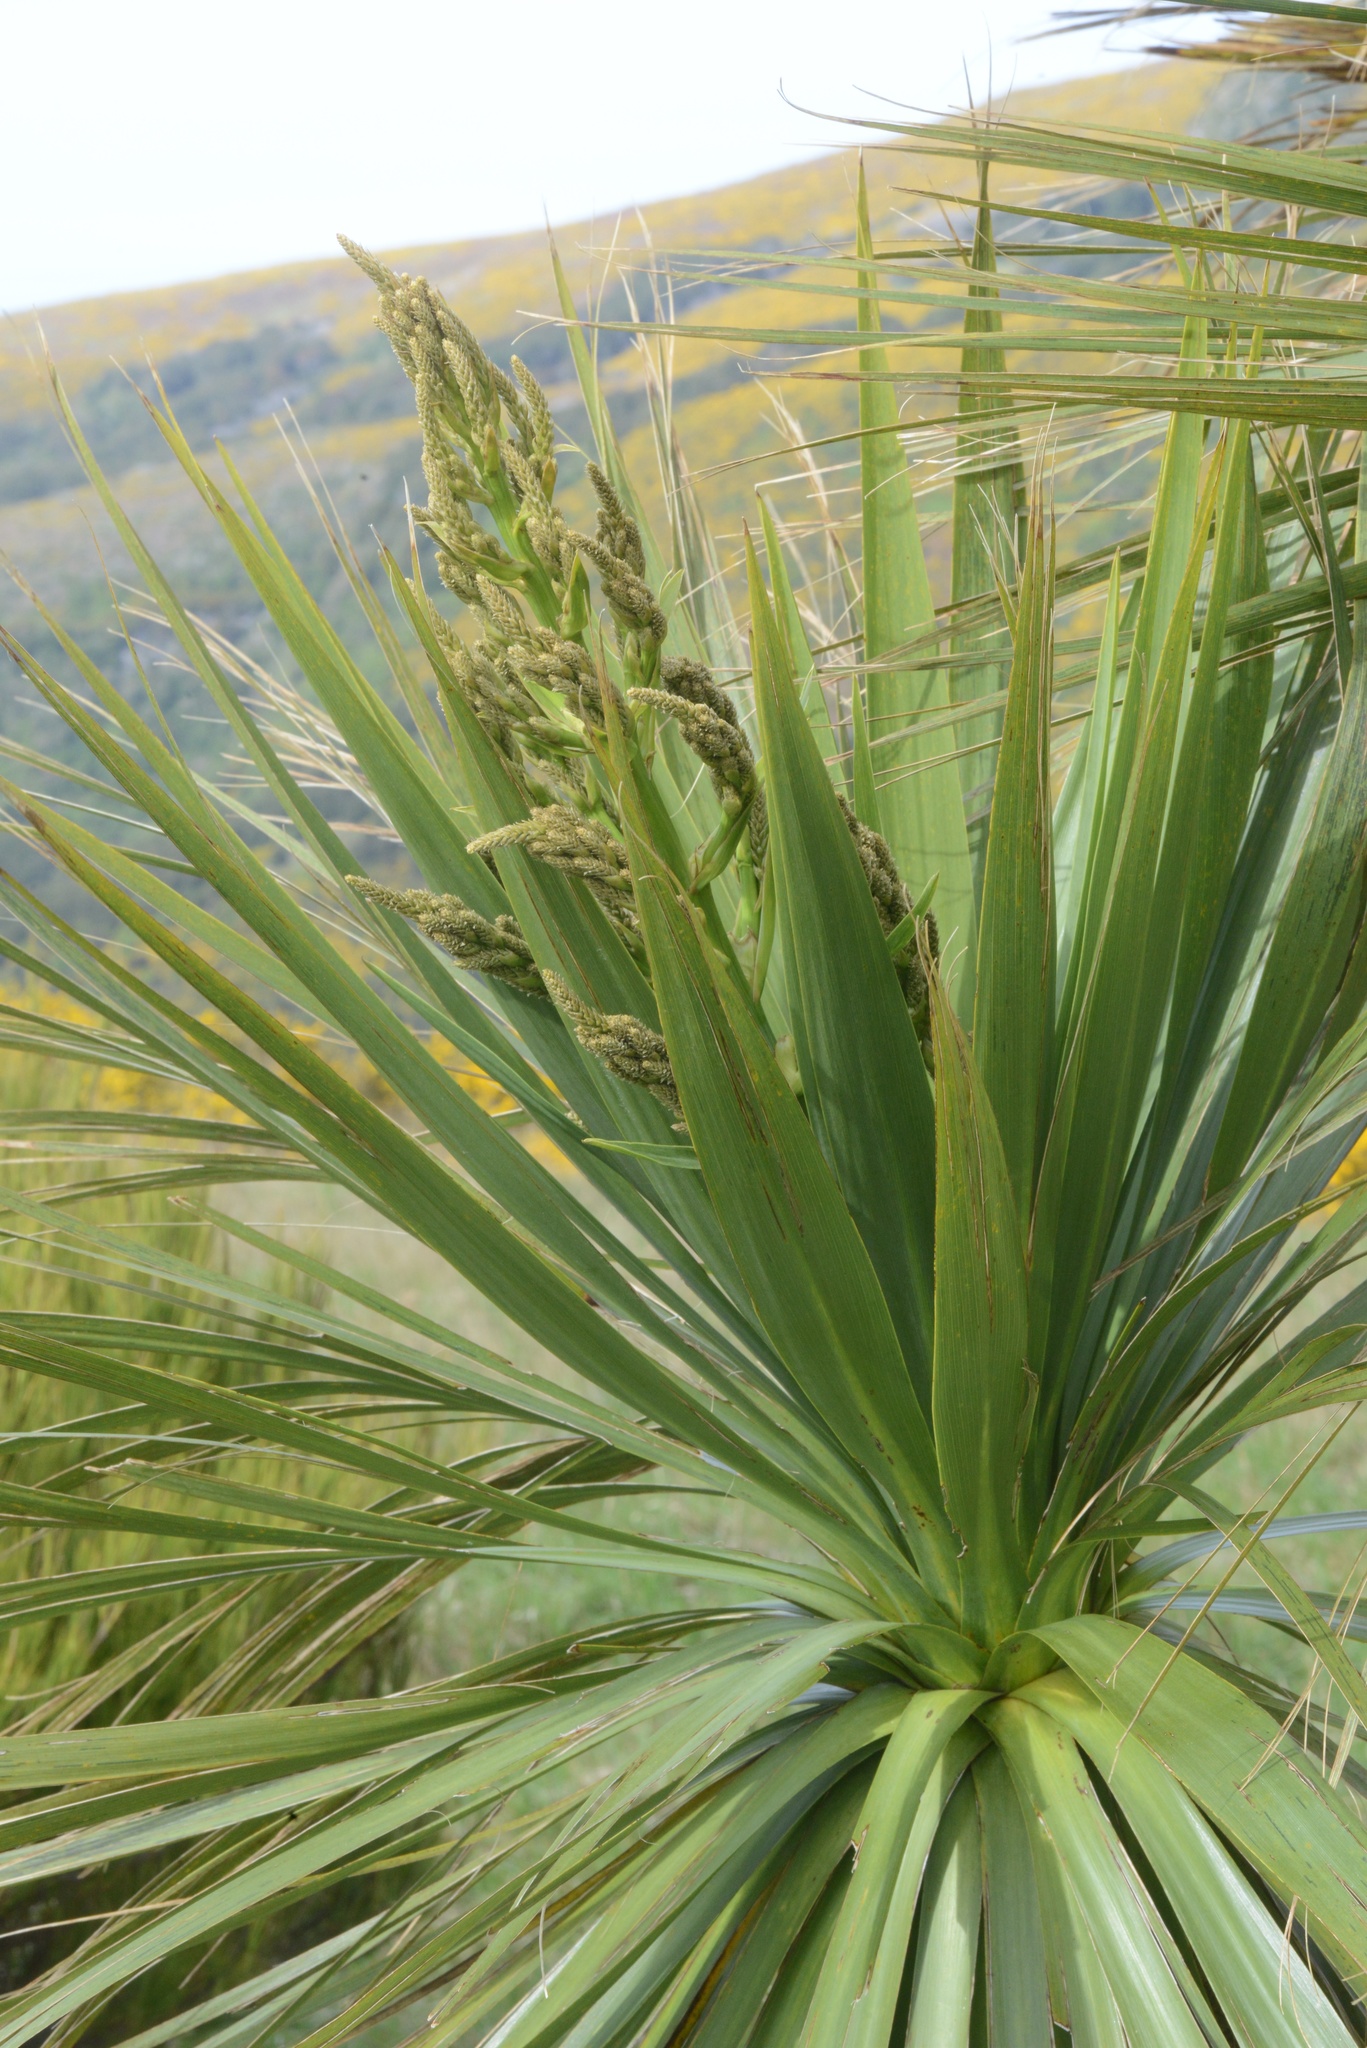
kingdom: Plantae
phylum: Tracheophyta
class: Liliopsida
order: Asparagales
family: Asparagaceae
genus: Cordyline
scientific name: Cordyline australis
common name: Cabbage-palm
